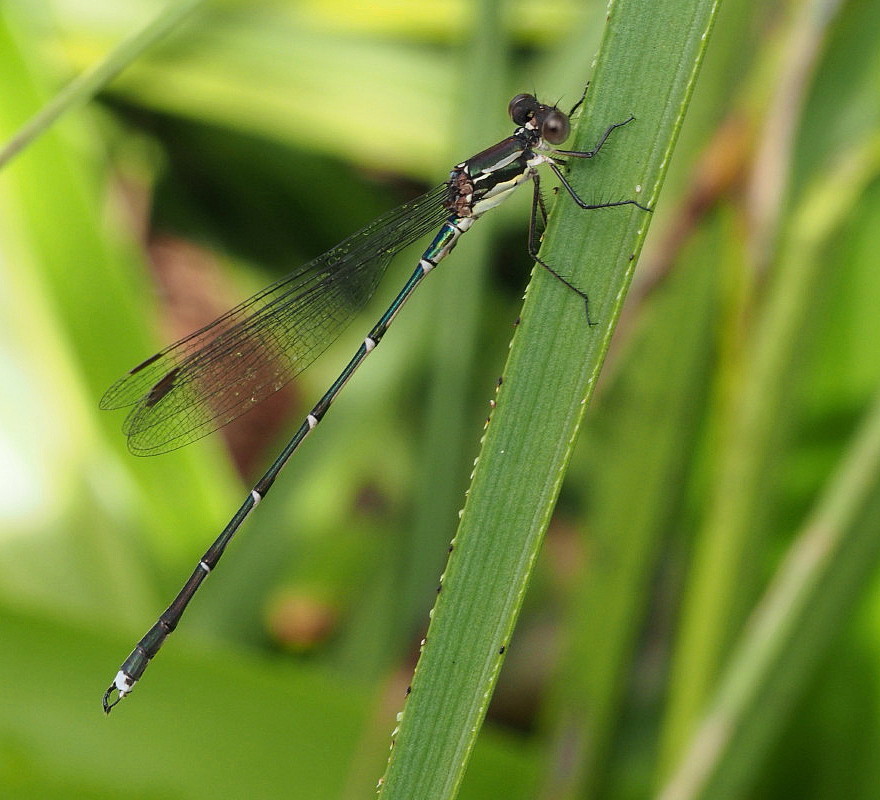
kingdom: Animalia
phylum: Arthropoda
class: Insecta
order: Odonata
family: Lestidae
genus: Austrolestes
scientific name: Austrolestes colensonis
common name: Blue damselfly
